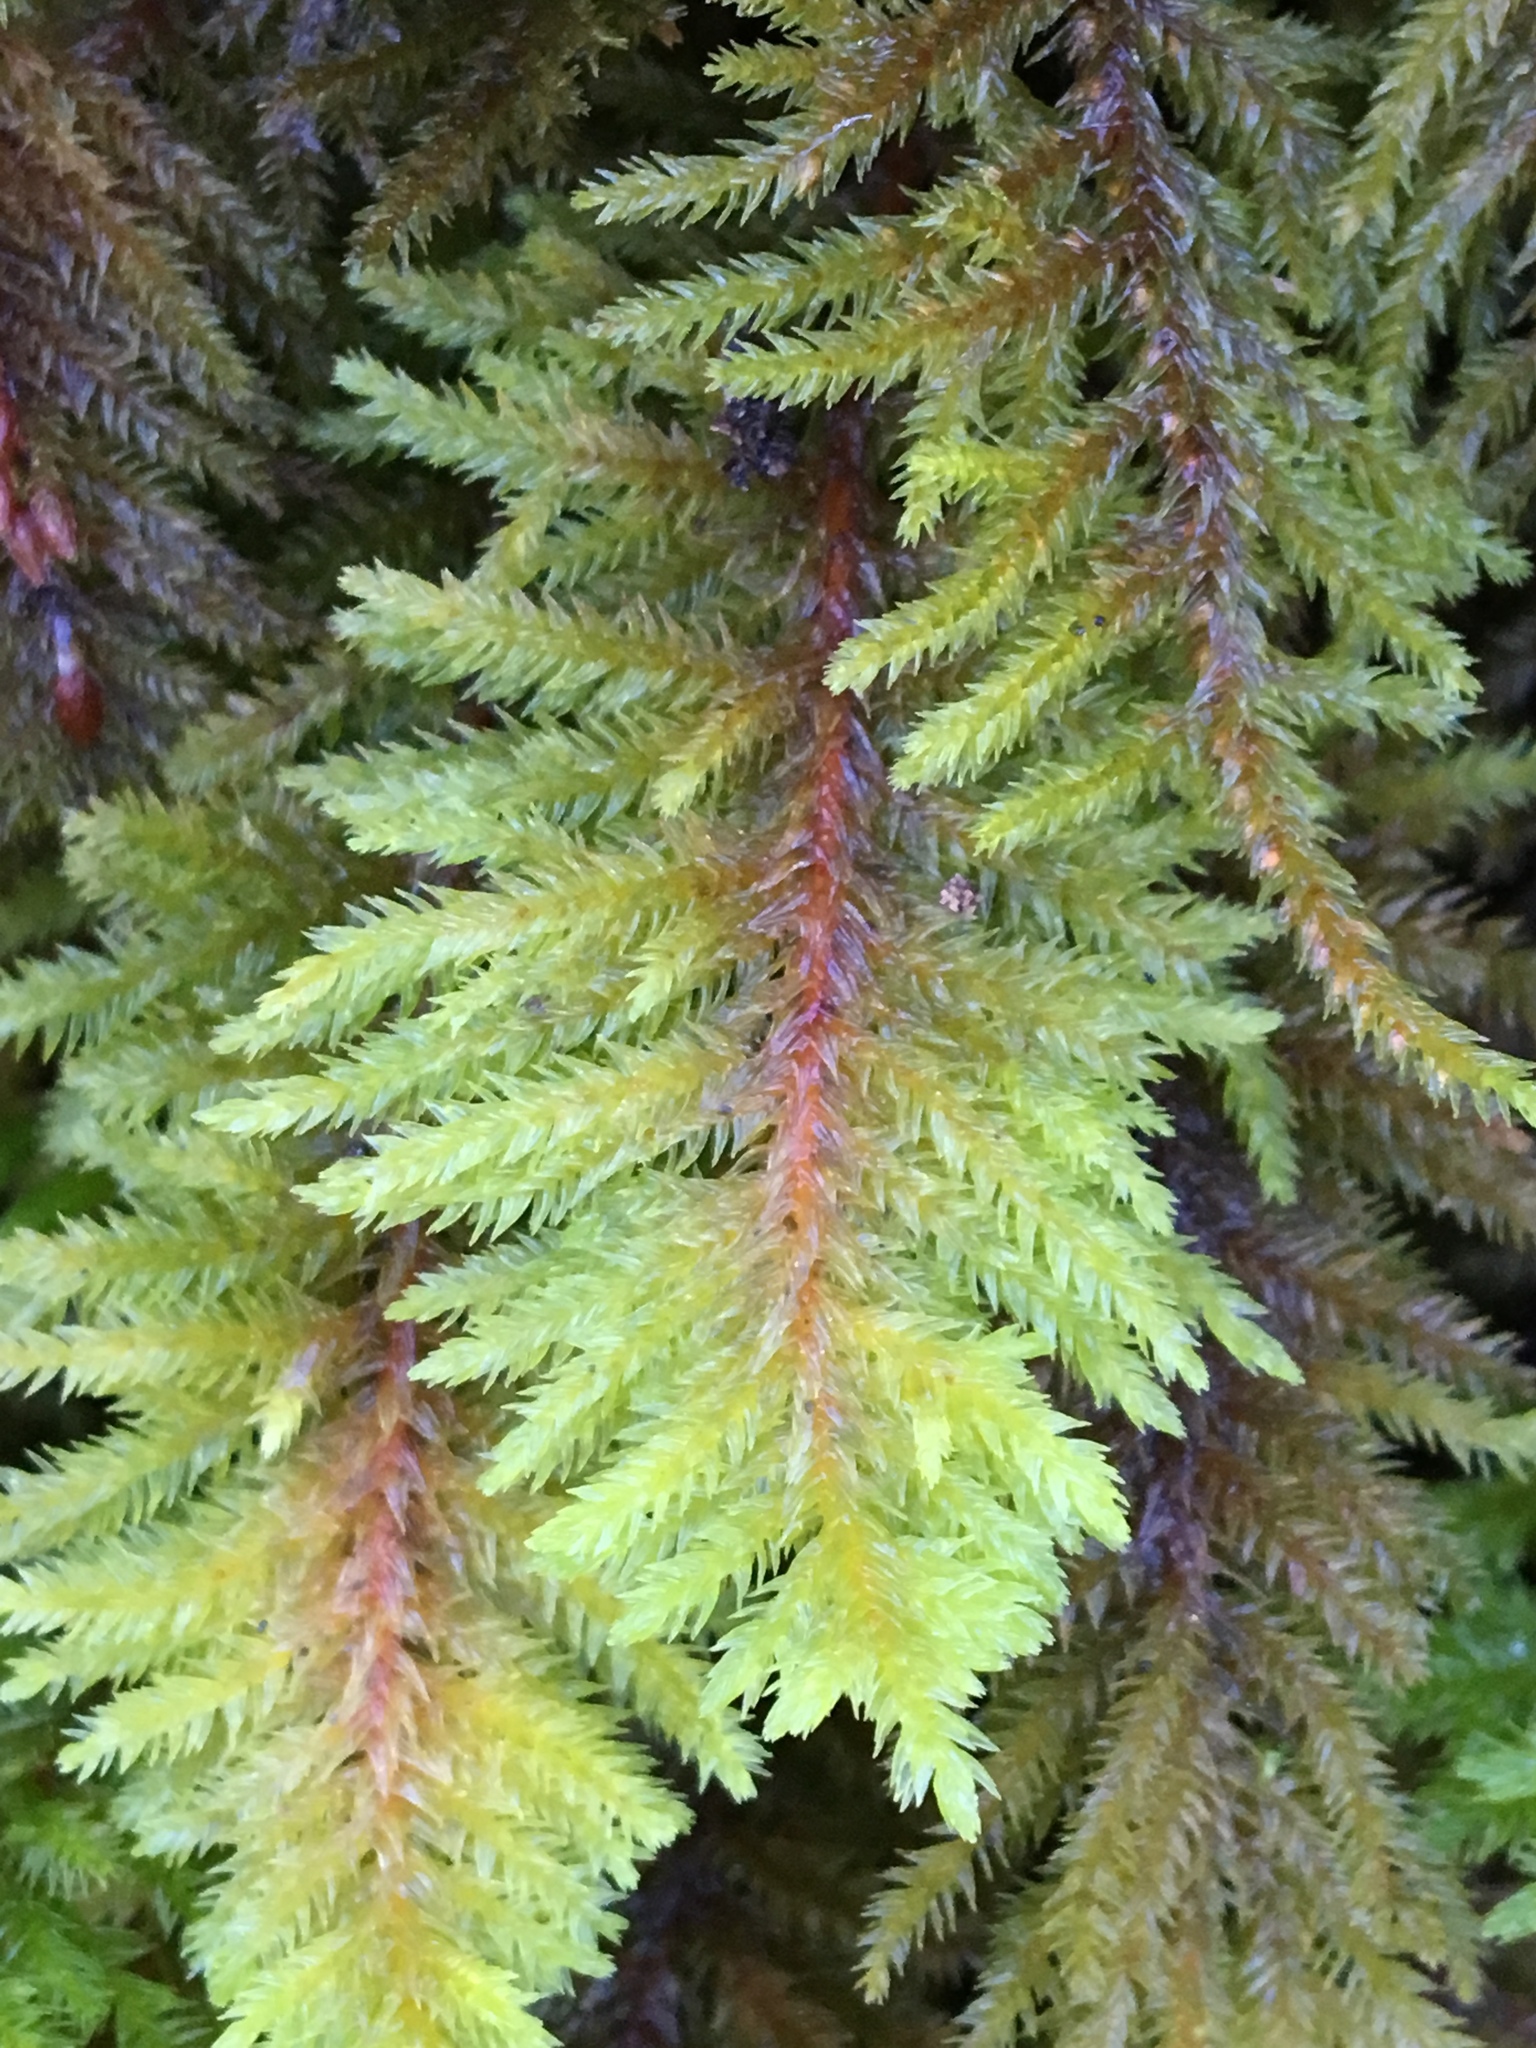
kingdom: Plantae
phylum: Bryophyta
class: Bryopsida
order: Hypnales
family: Cryphaeaceae
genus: Dendroalsia
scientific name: Dendroalsia abietina
